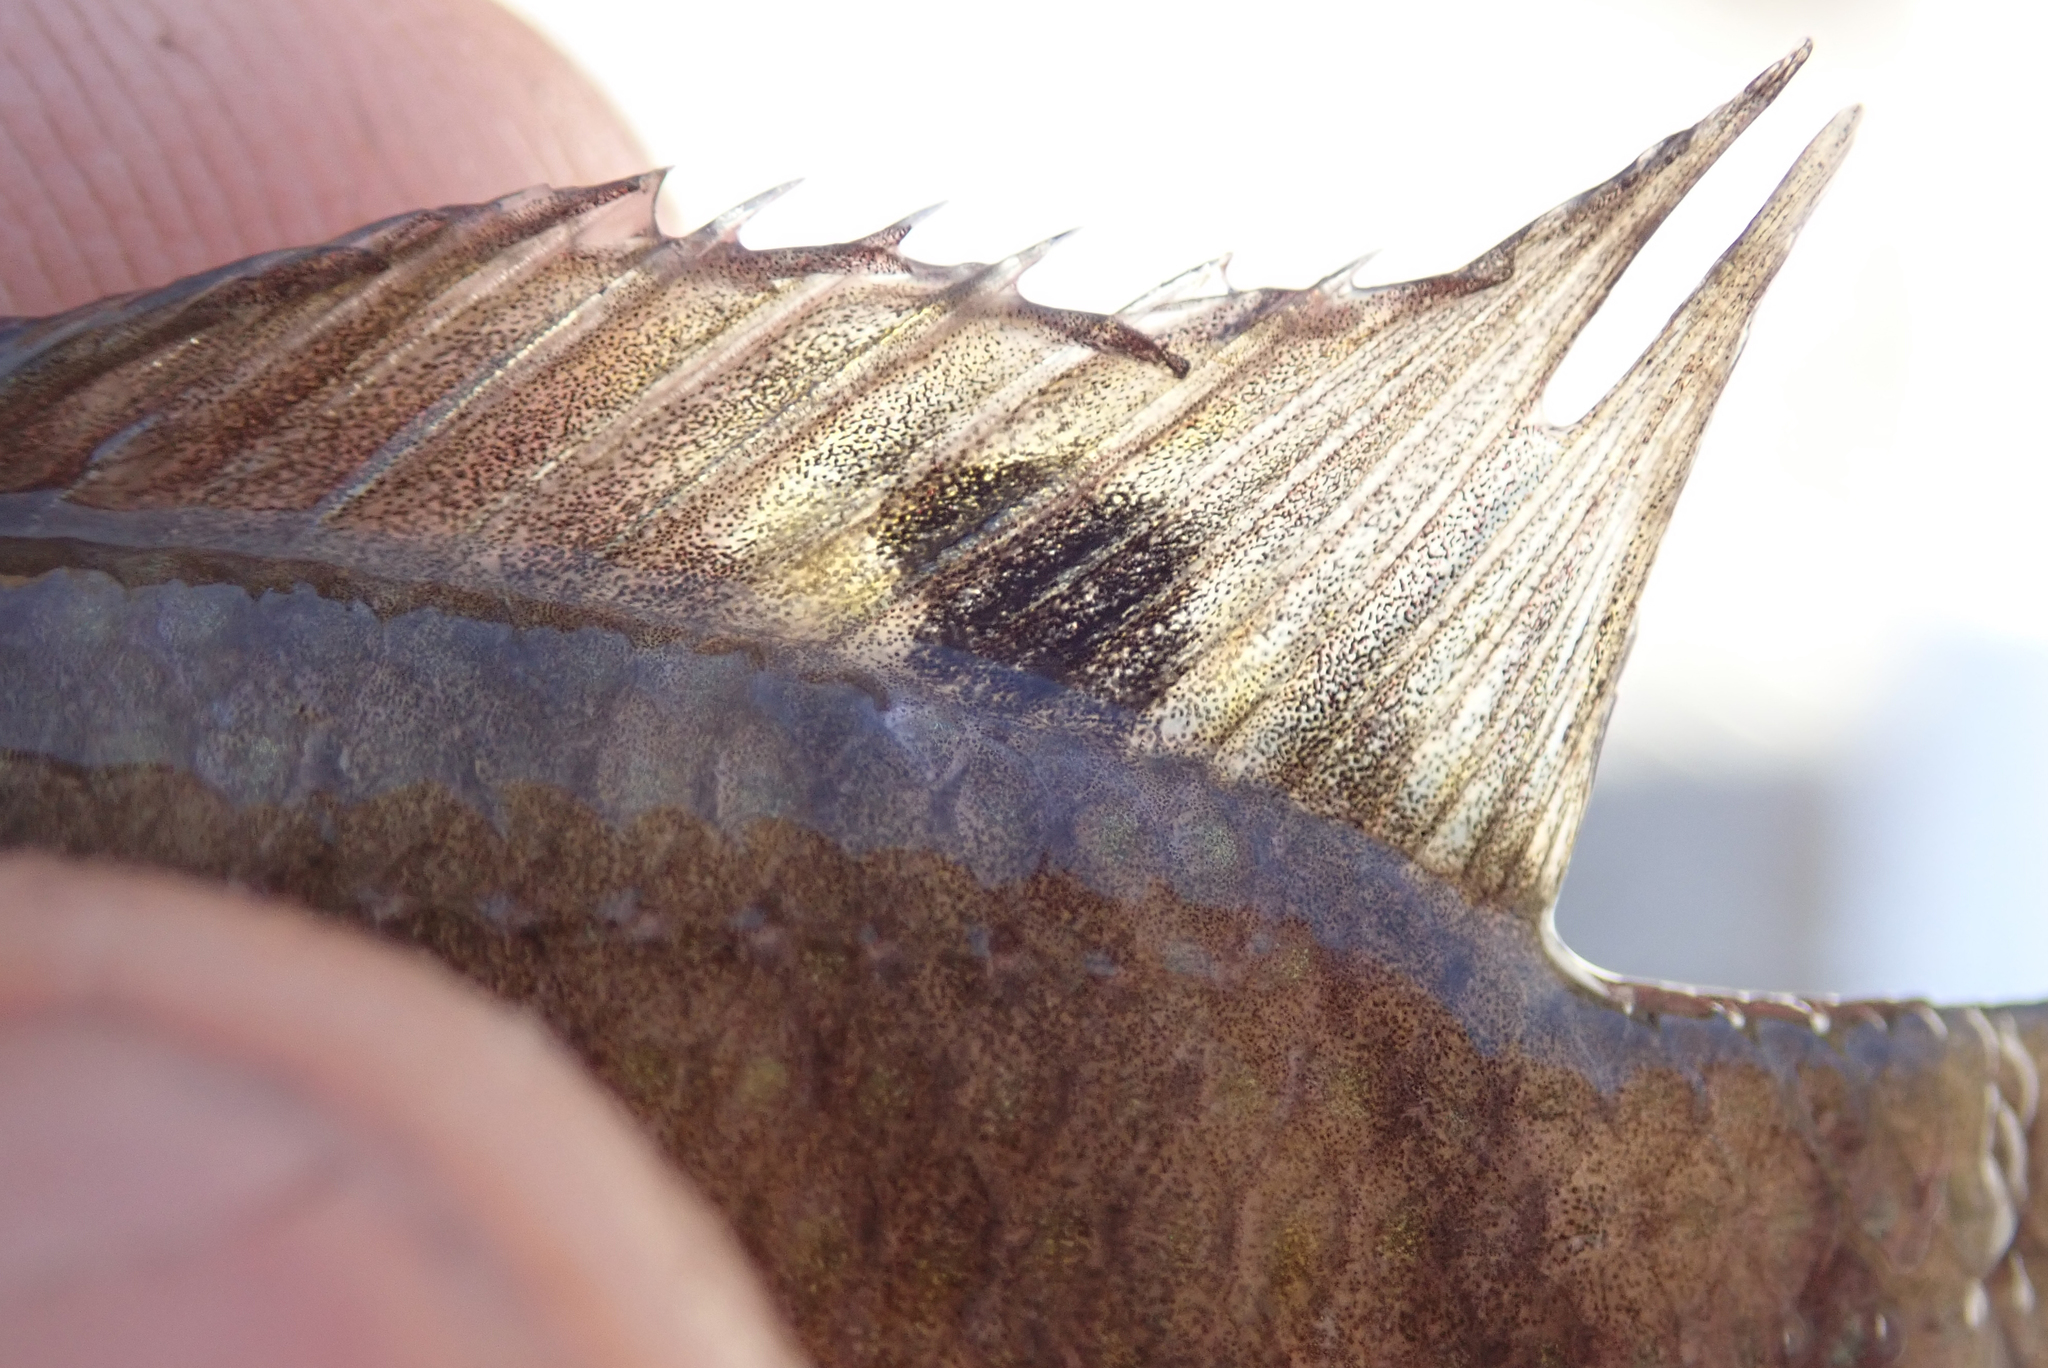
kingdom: Animalia
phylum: Chordata
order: Perciformes
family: Cichlidae
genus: Tilapia
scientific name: Tilapia sparrmanii
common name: Banded tilapia
